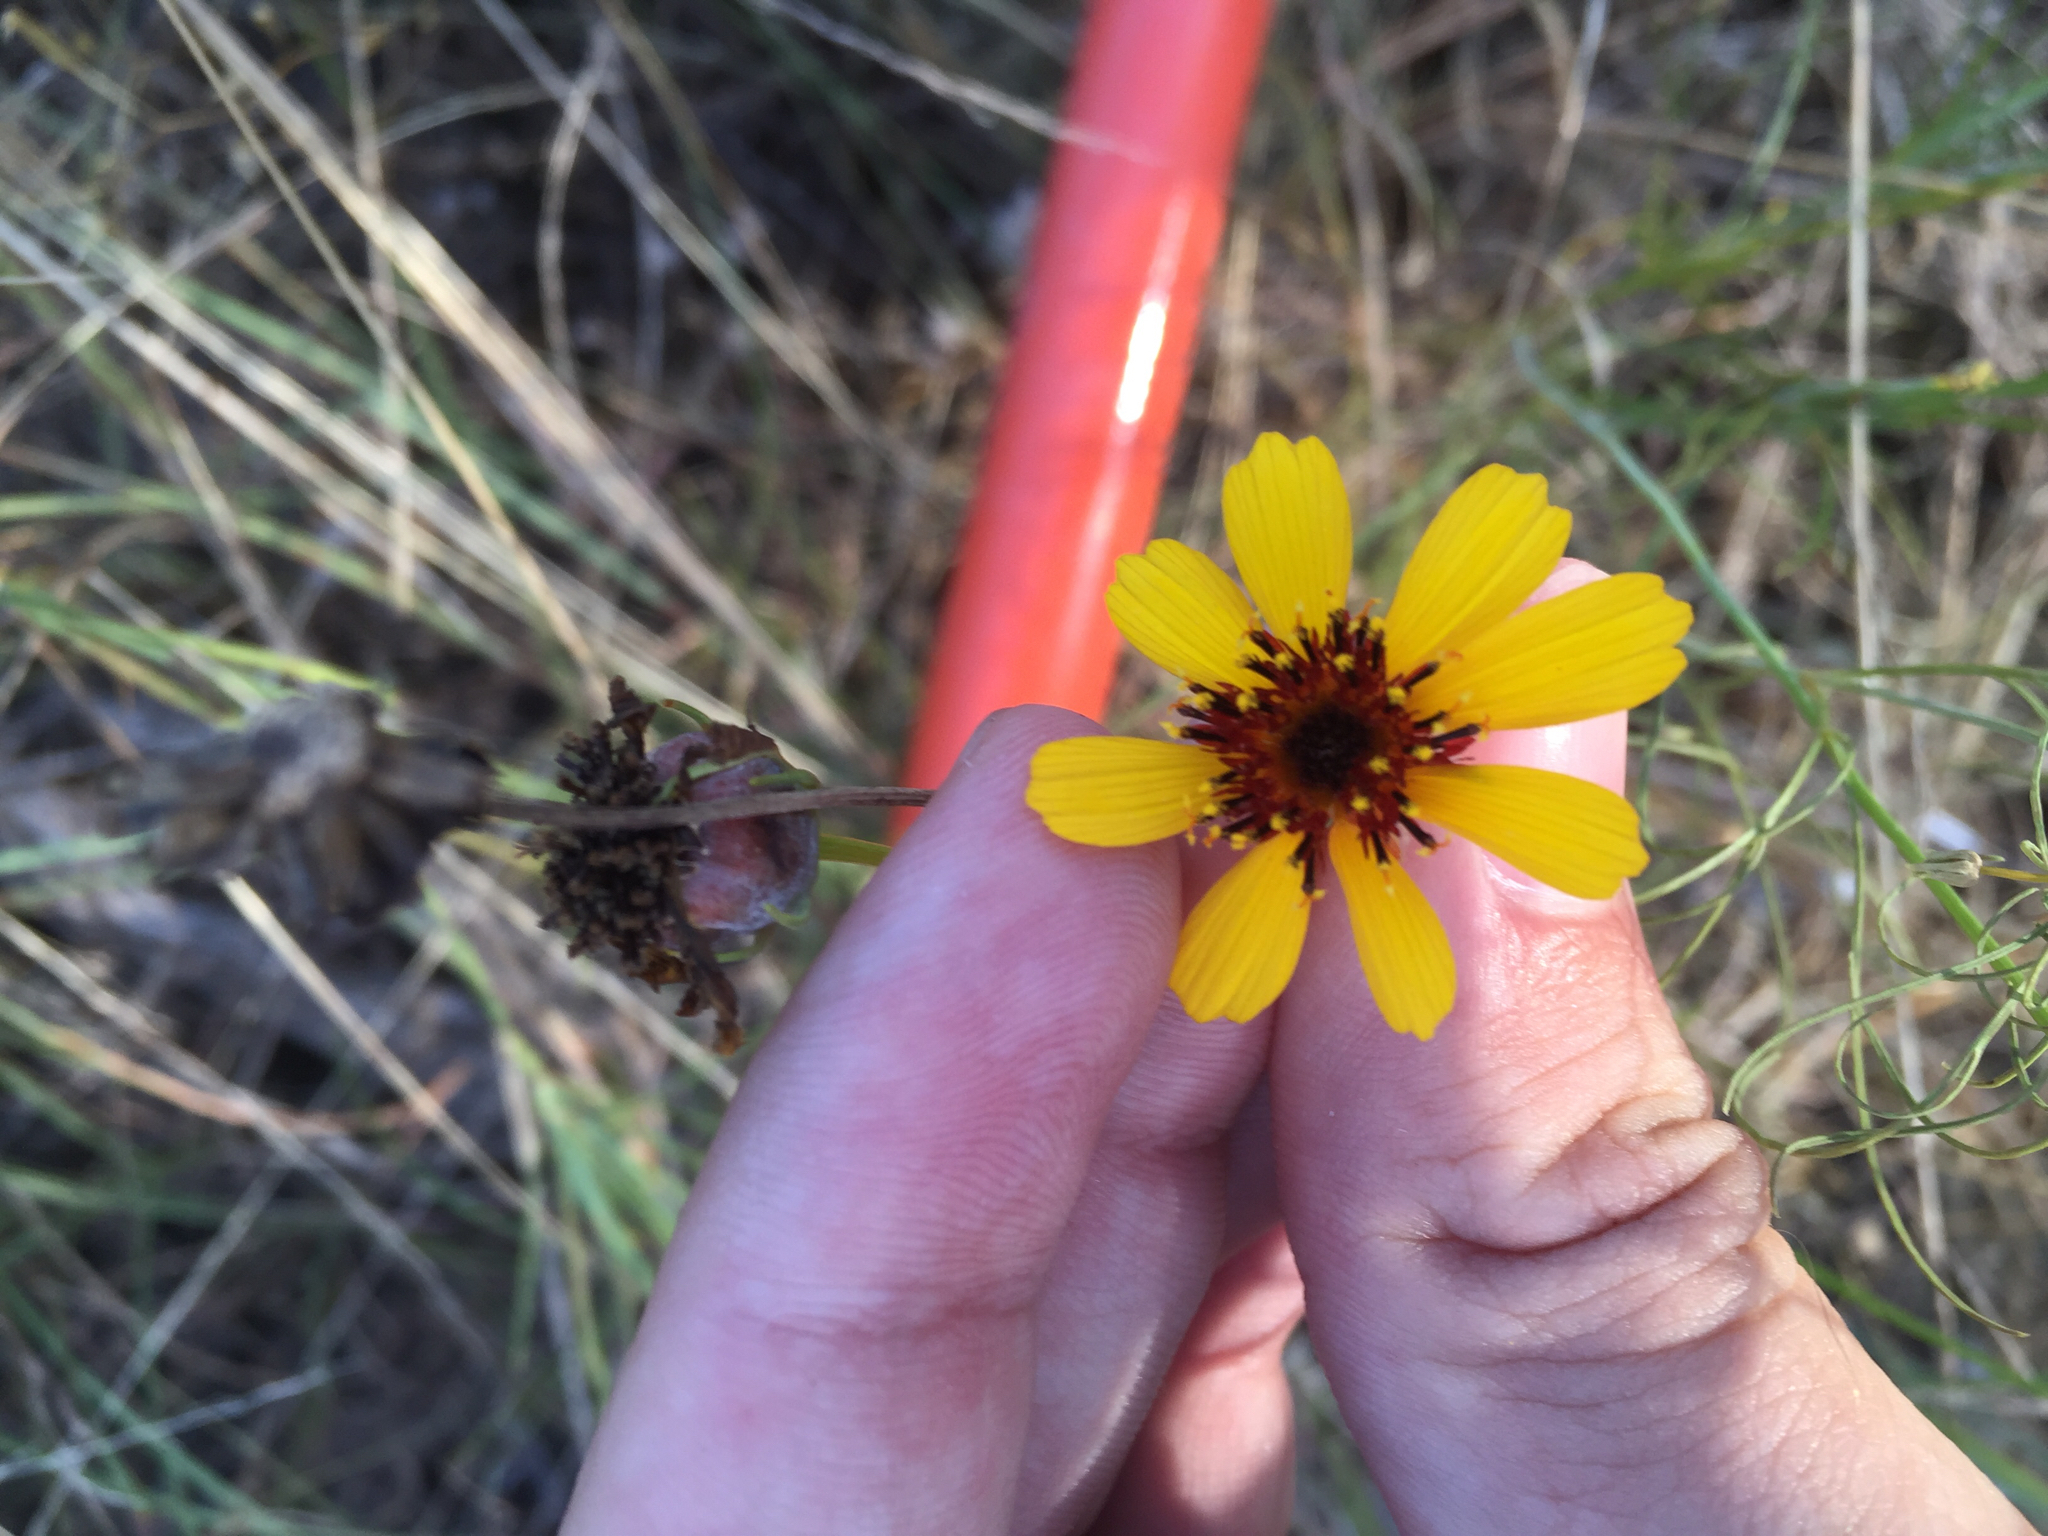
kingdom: Plantae
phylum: Tracheophyta
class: Magnoliopsida
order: Asterales
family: Asteraceae
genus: Thelesperma
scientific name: Thelesperma filifolium
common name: Stiff greenthread
